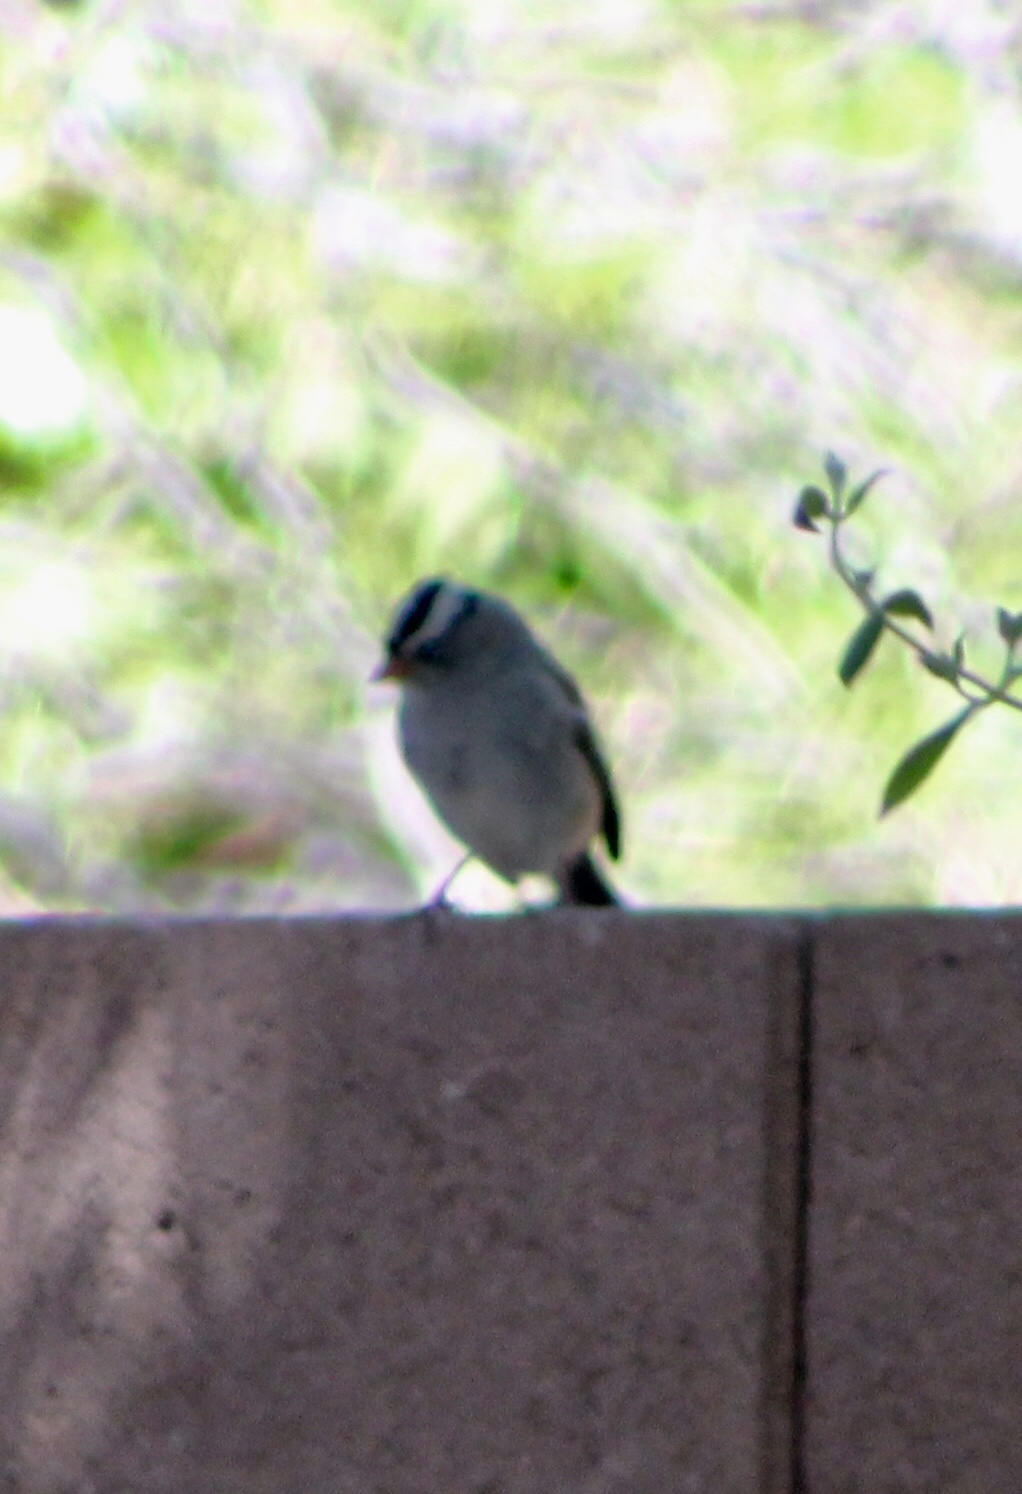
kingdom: Animalia
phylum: Chordata
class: Aves
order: Passeriformes
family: Passerellidae
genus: Zonotrichia
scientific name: Zonotrichia leucophrys
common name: White-crowned sparrow
